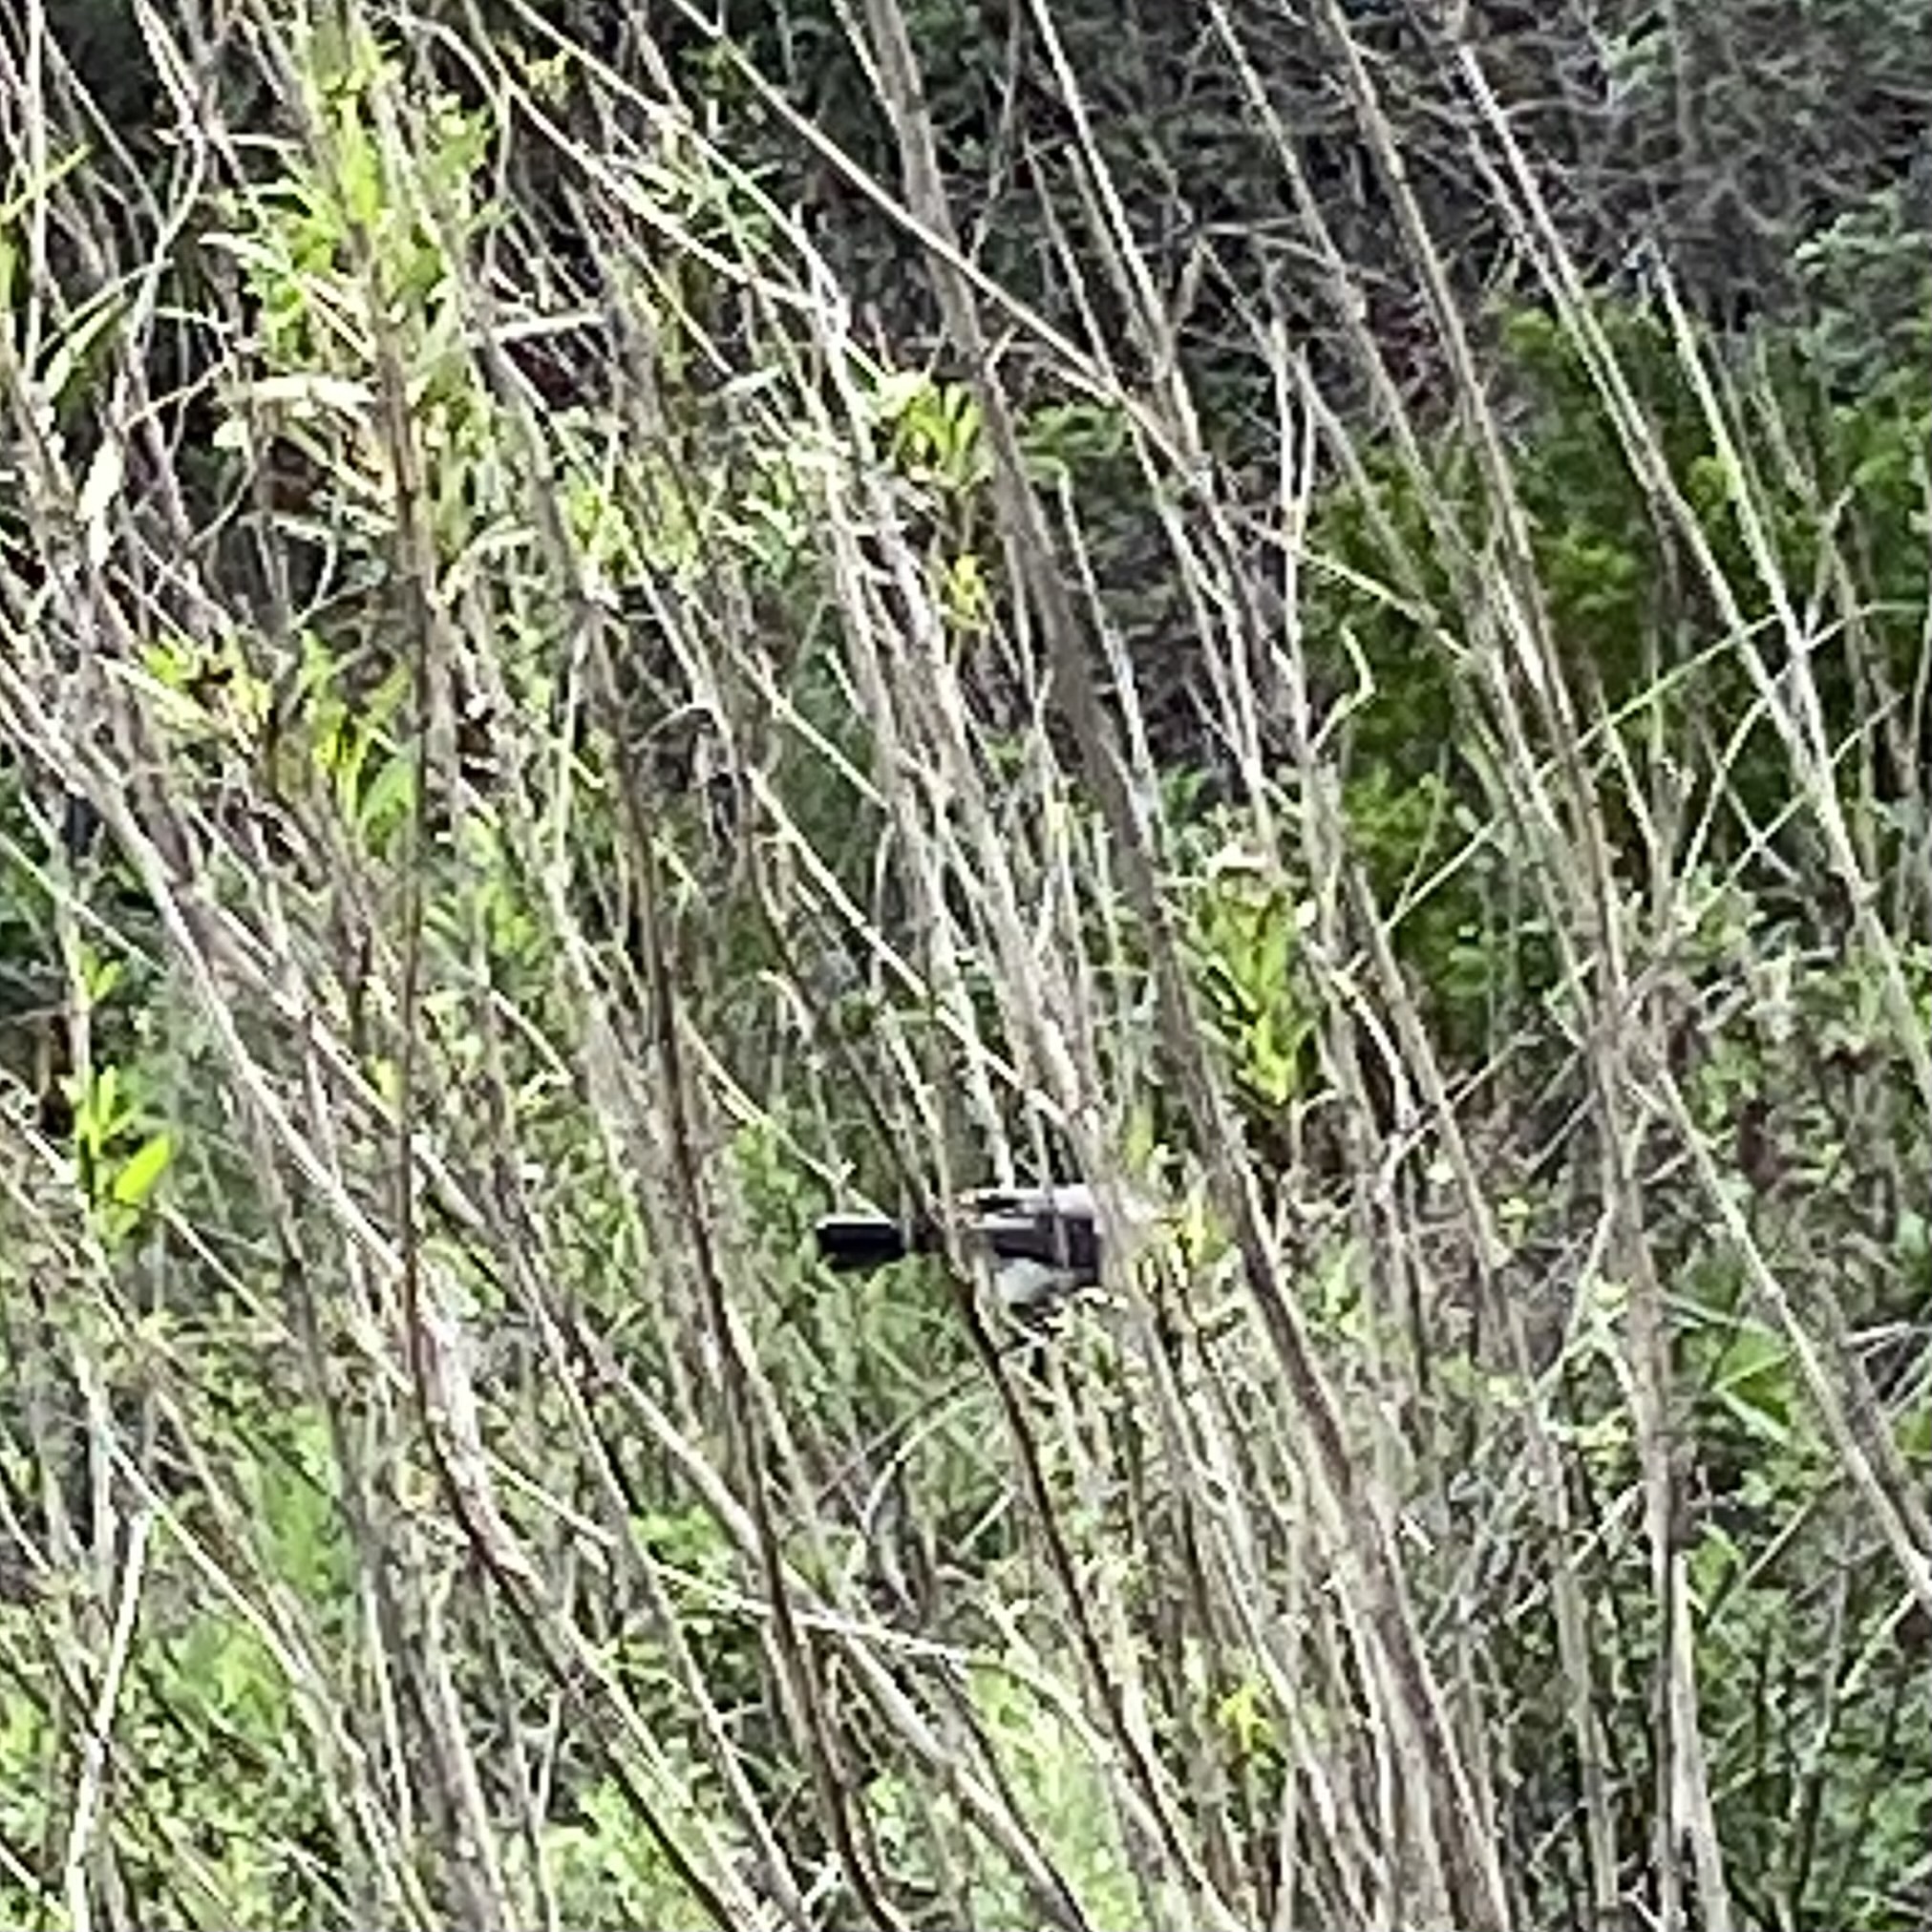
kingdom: Animalia
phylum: Chordata
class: Aves
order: Passeriformes
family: Polioptilidae
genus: Polioptila
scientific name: Polioptila caerulea
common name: Blue-gray gnatcatcher
